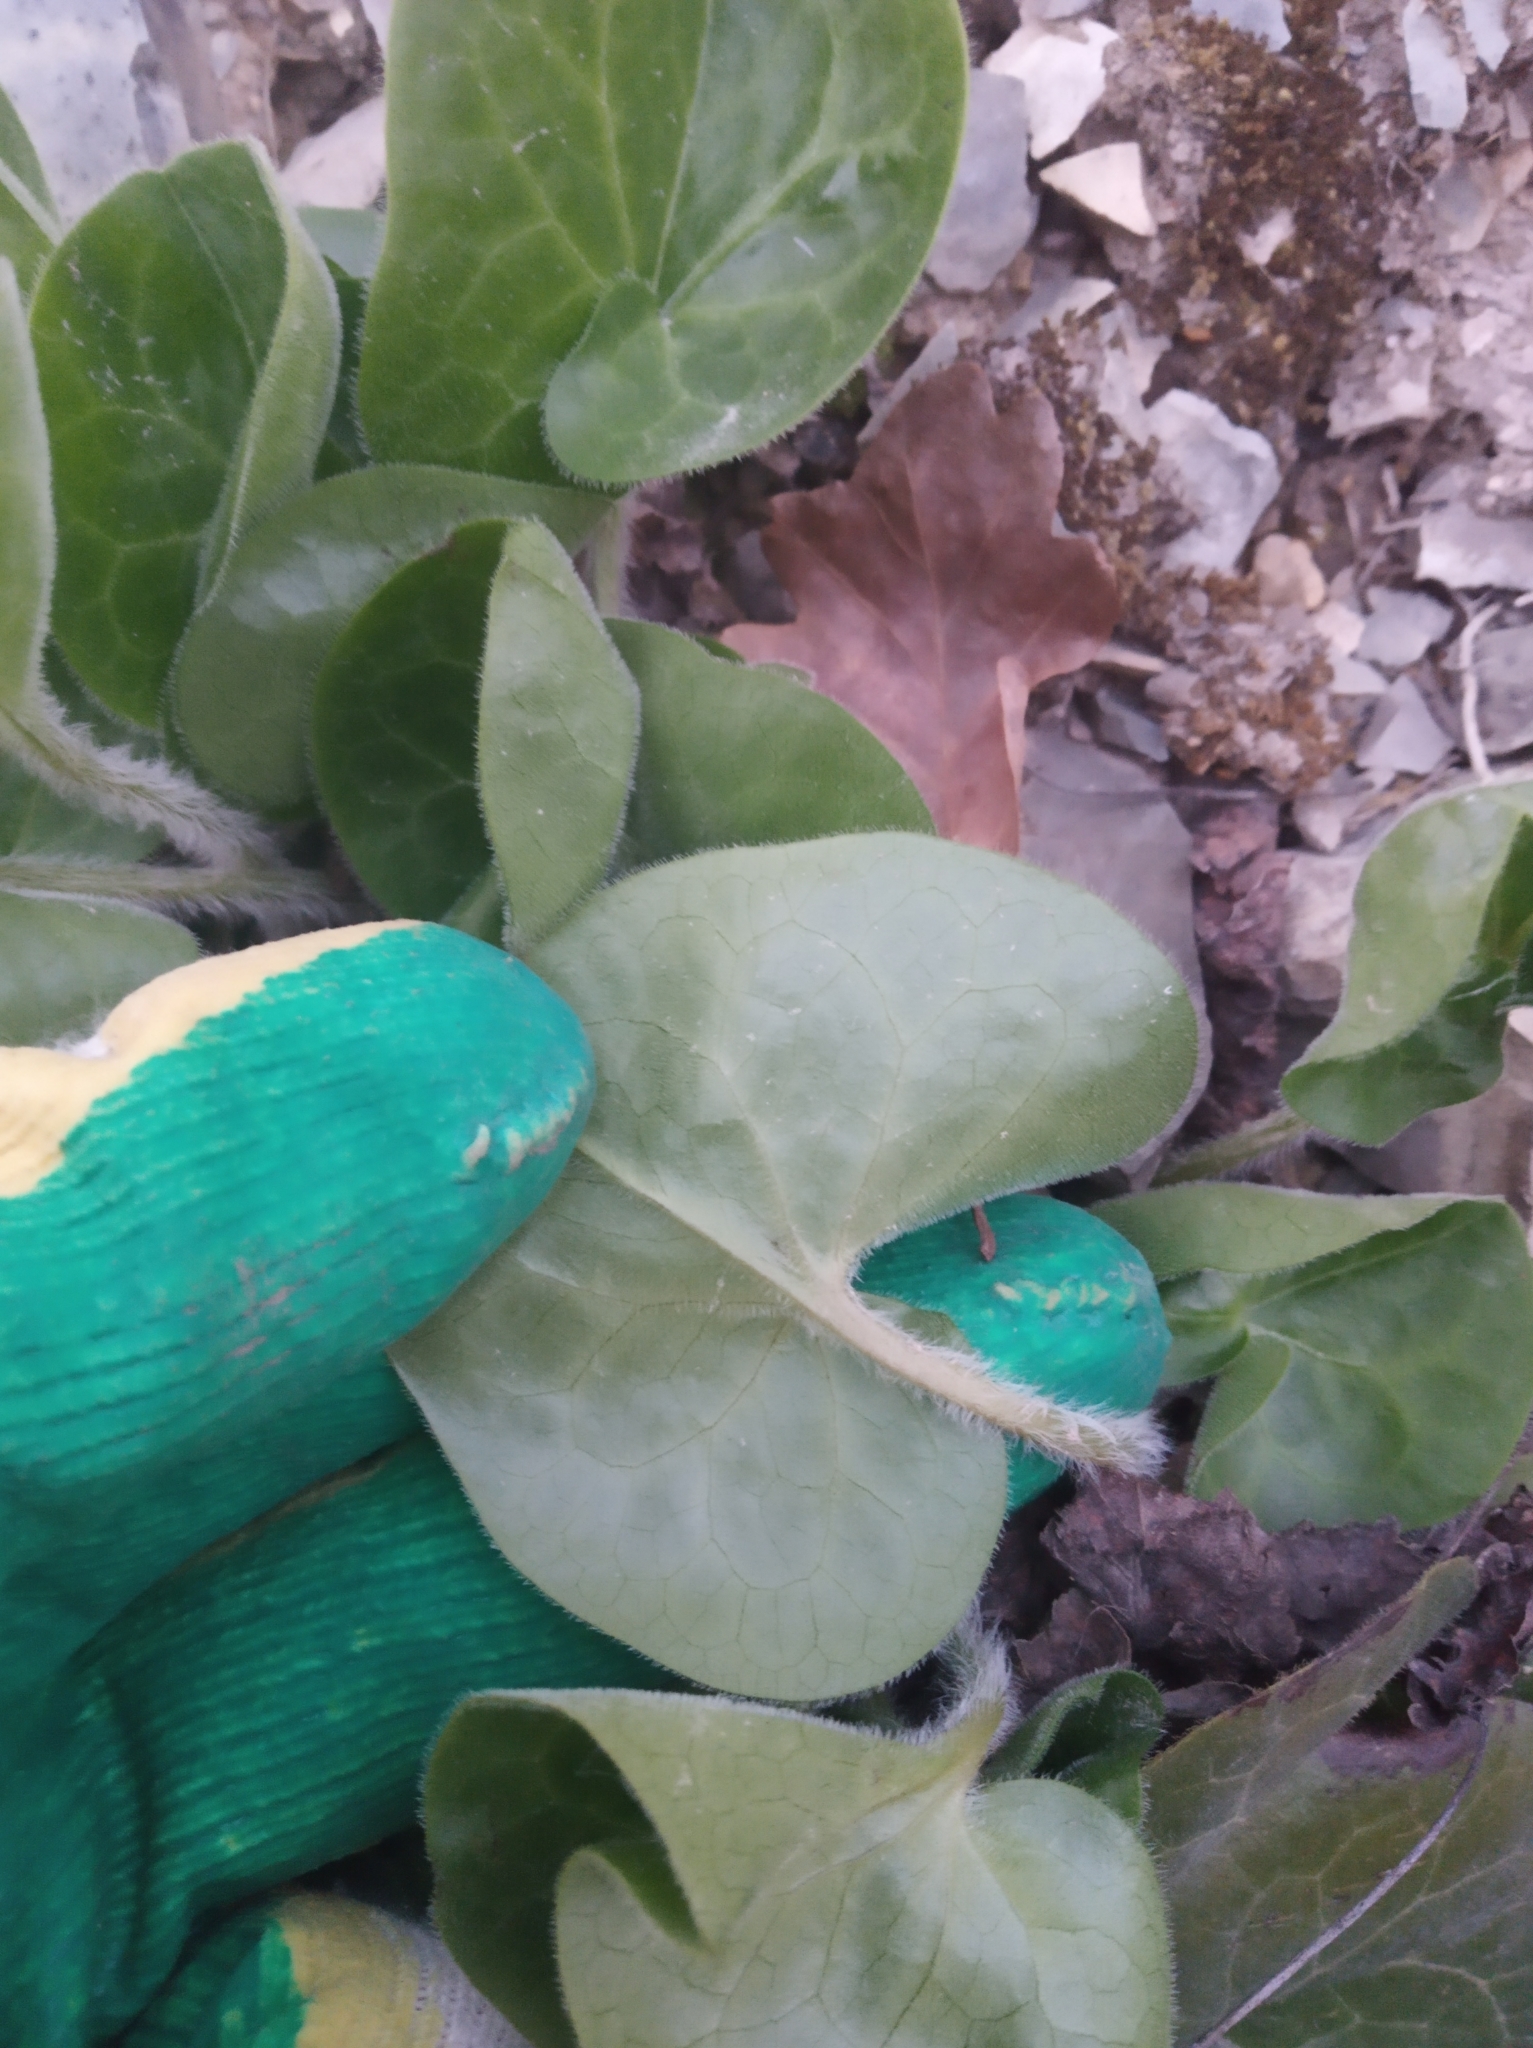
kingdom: Plantae
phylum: Tracheophyta
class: Magnoliopsida
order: Piperales
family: Aristolochiaceae
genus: Asarum
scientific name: Asarum europaeum
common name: Asarabacca
